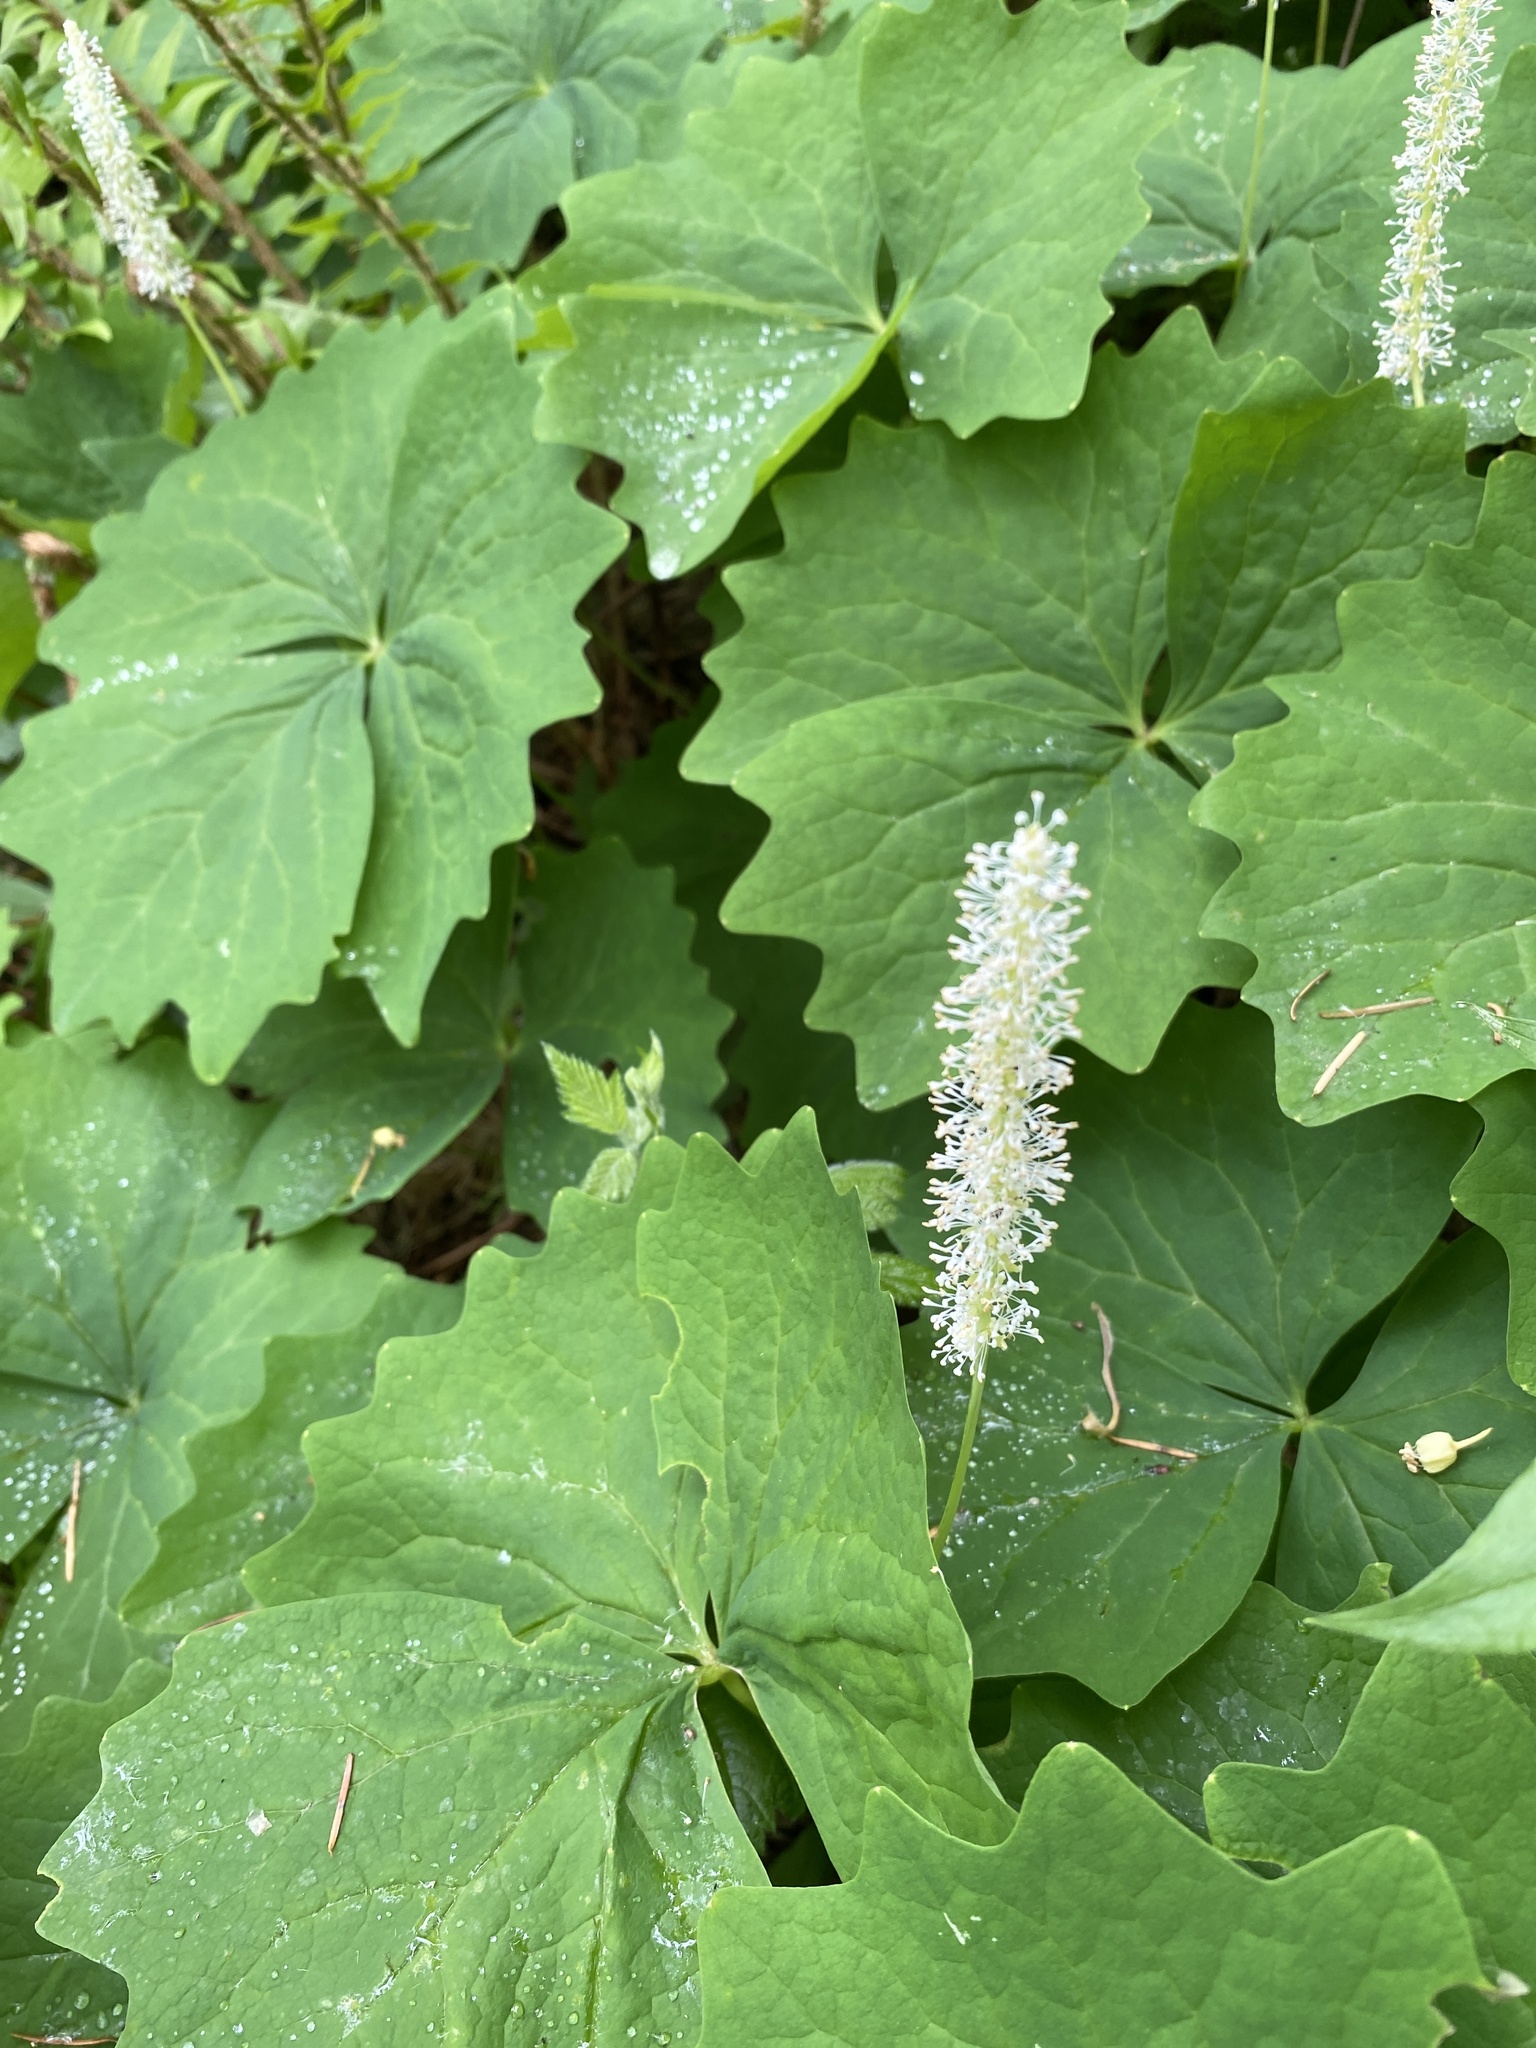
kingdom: Plantae
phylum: Tracheophyta
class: Magnoliopsida
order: Ranunculales
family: Berberidaceae
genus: Achlys
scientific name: Achlys triphylla
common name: Vanilla-leaf
